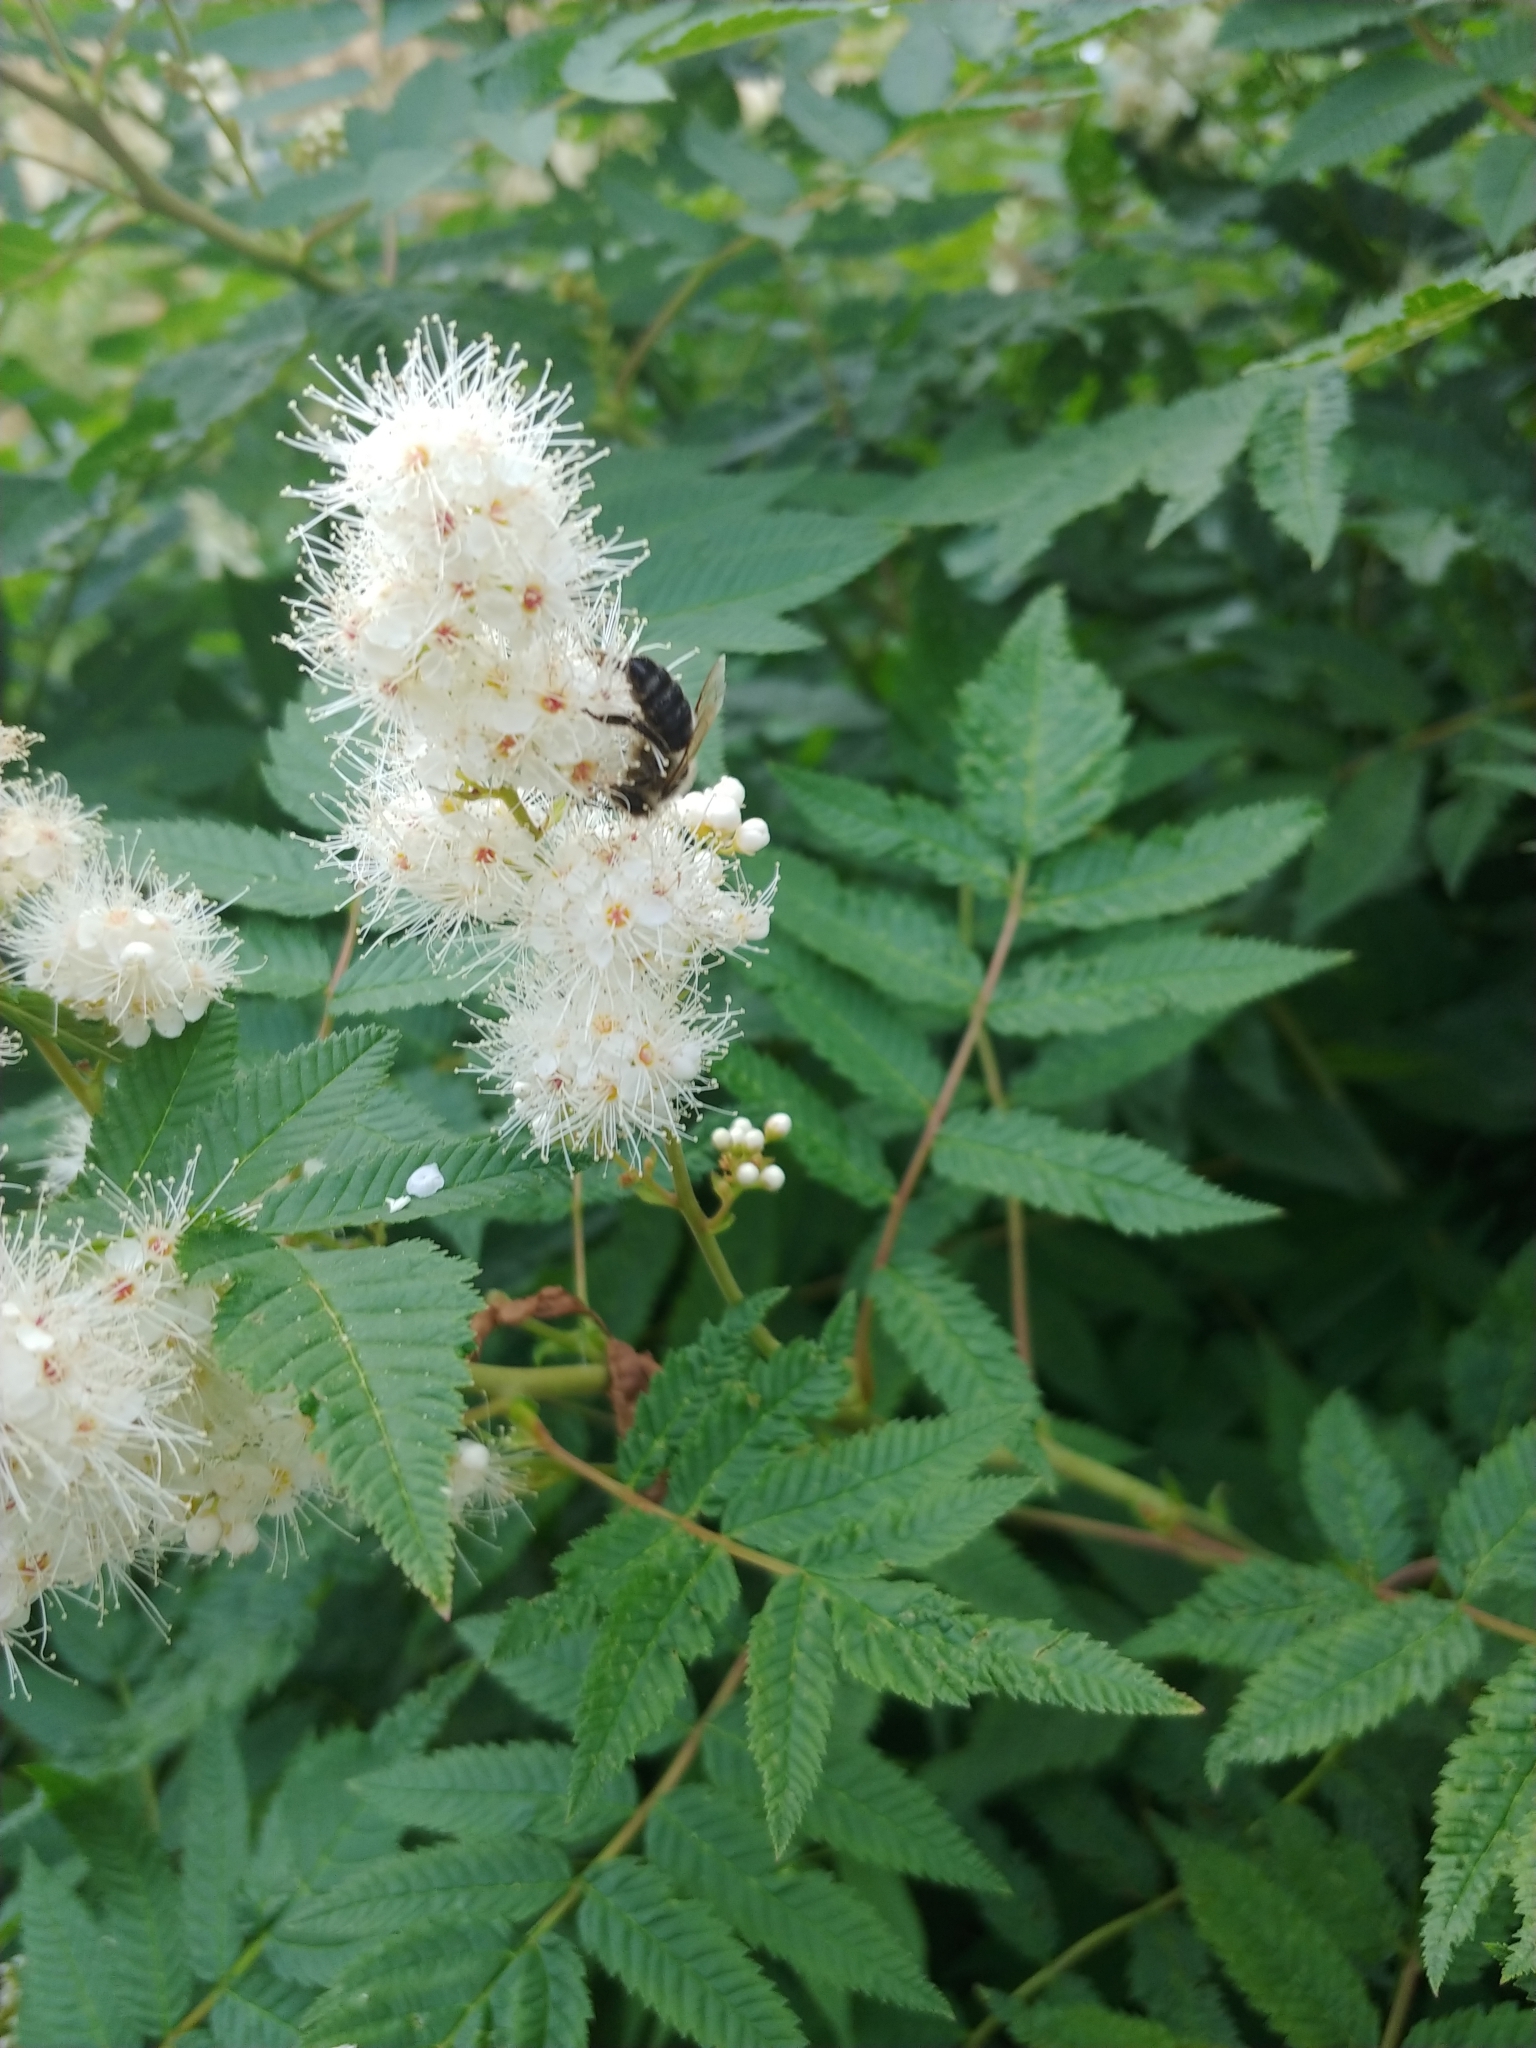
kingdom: Animalia
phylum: Arthropoda
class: Insecta
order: Hymenoptera
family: Apidae
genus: Apis
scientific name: Apis mellifera
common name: Honey bee
